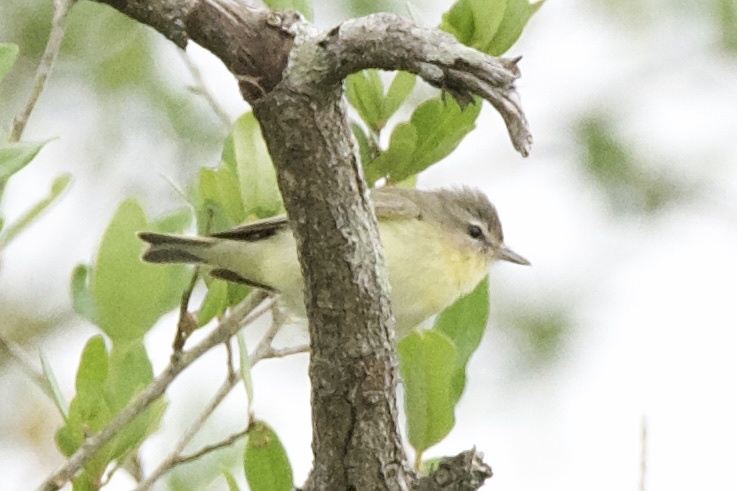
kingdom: Animalia
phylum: Chordata
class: Aves
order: Passeriformes
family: Vireonidae
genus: Vireo
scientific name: Vireo philadelphicus
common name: Philadelphia vireo
